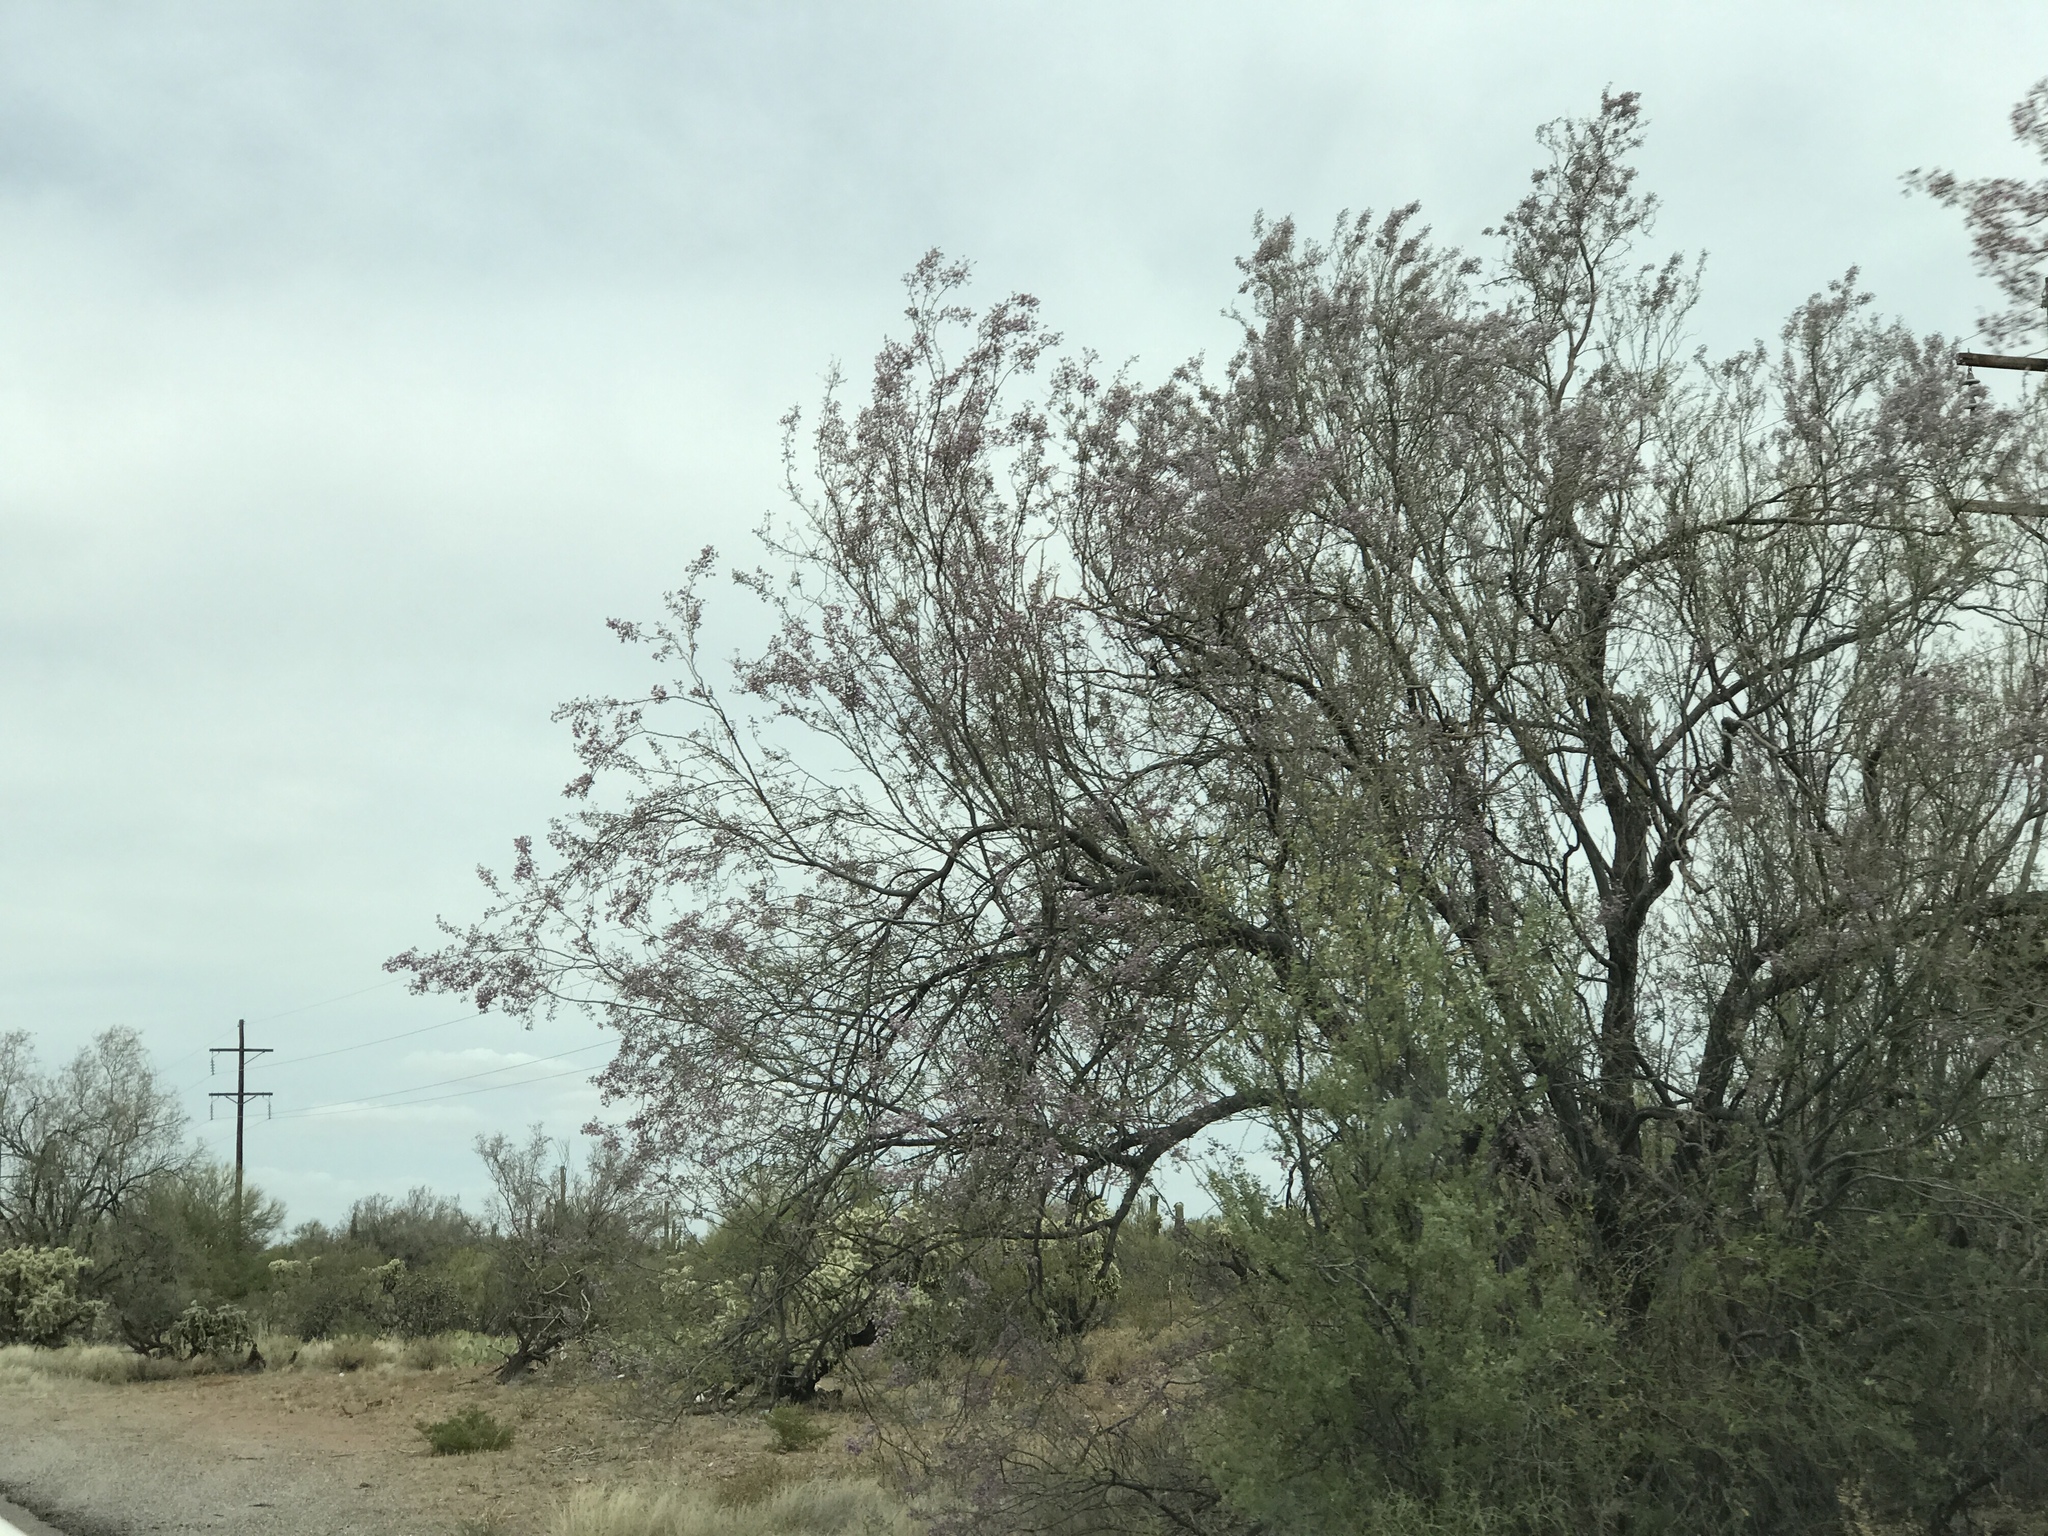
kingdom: Plantae
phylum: Tracheophyta
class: Magnoliopsida
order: Fabales
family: Fabaceae
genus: Olneya
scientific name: Olneya tesota
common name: Desert ironwood
